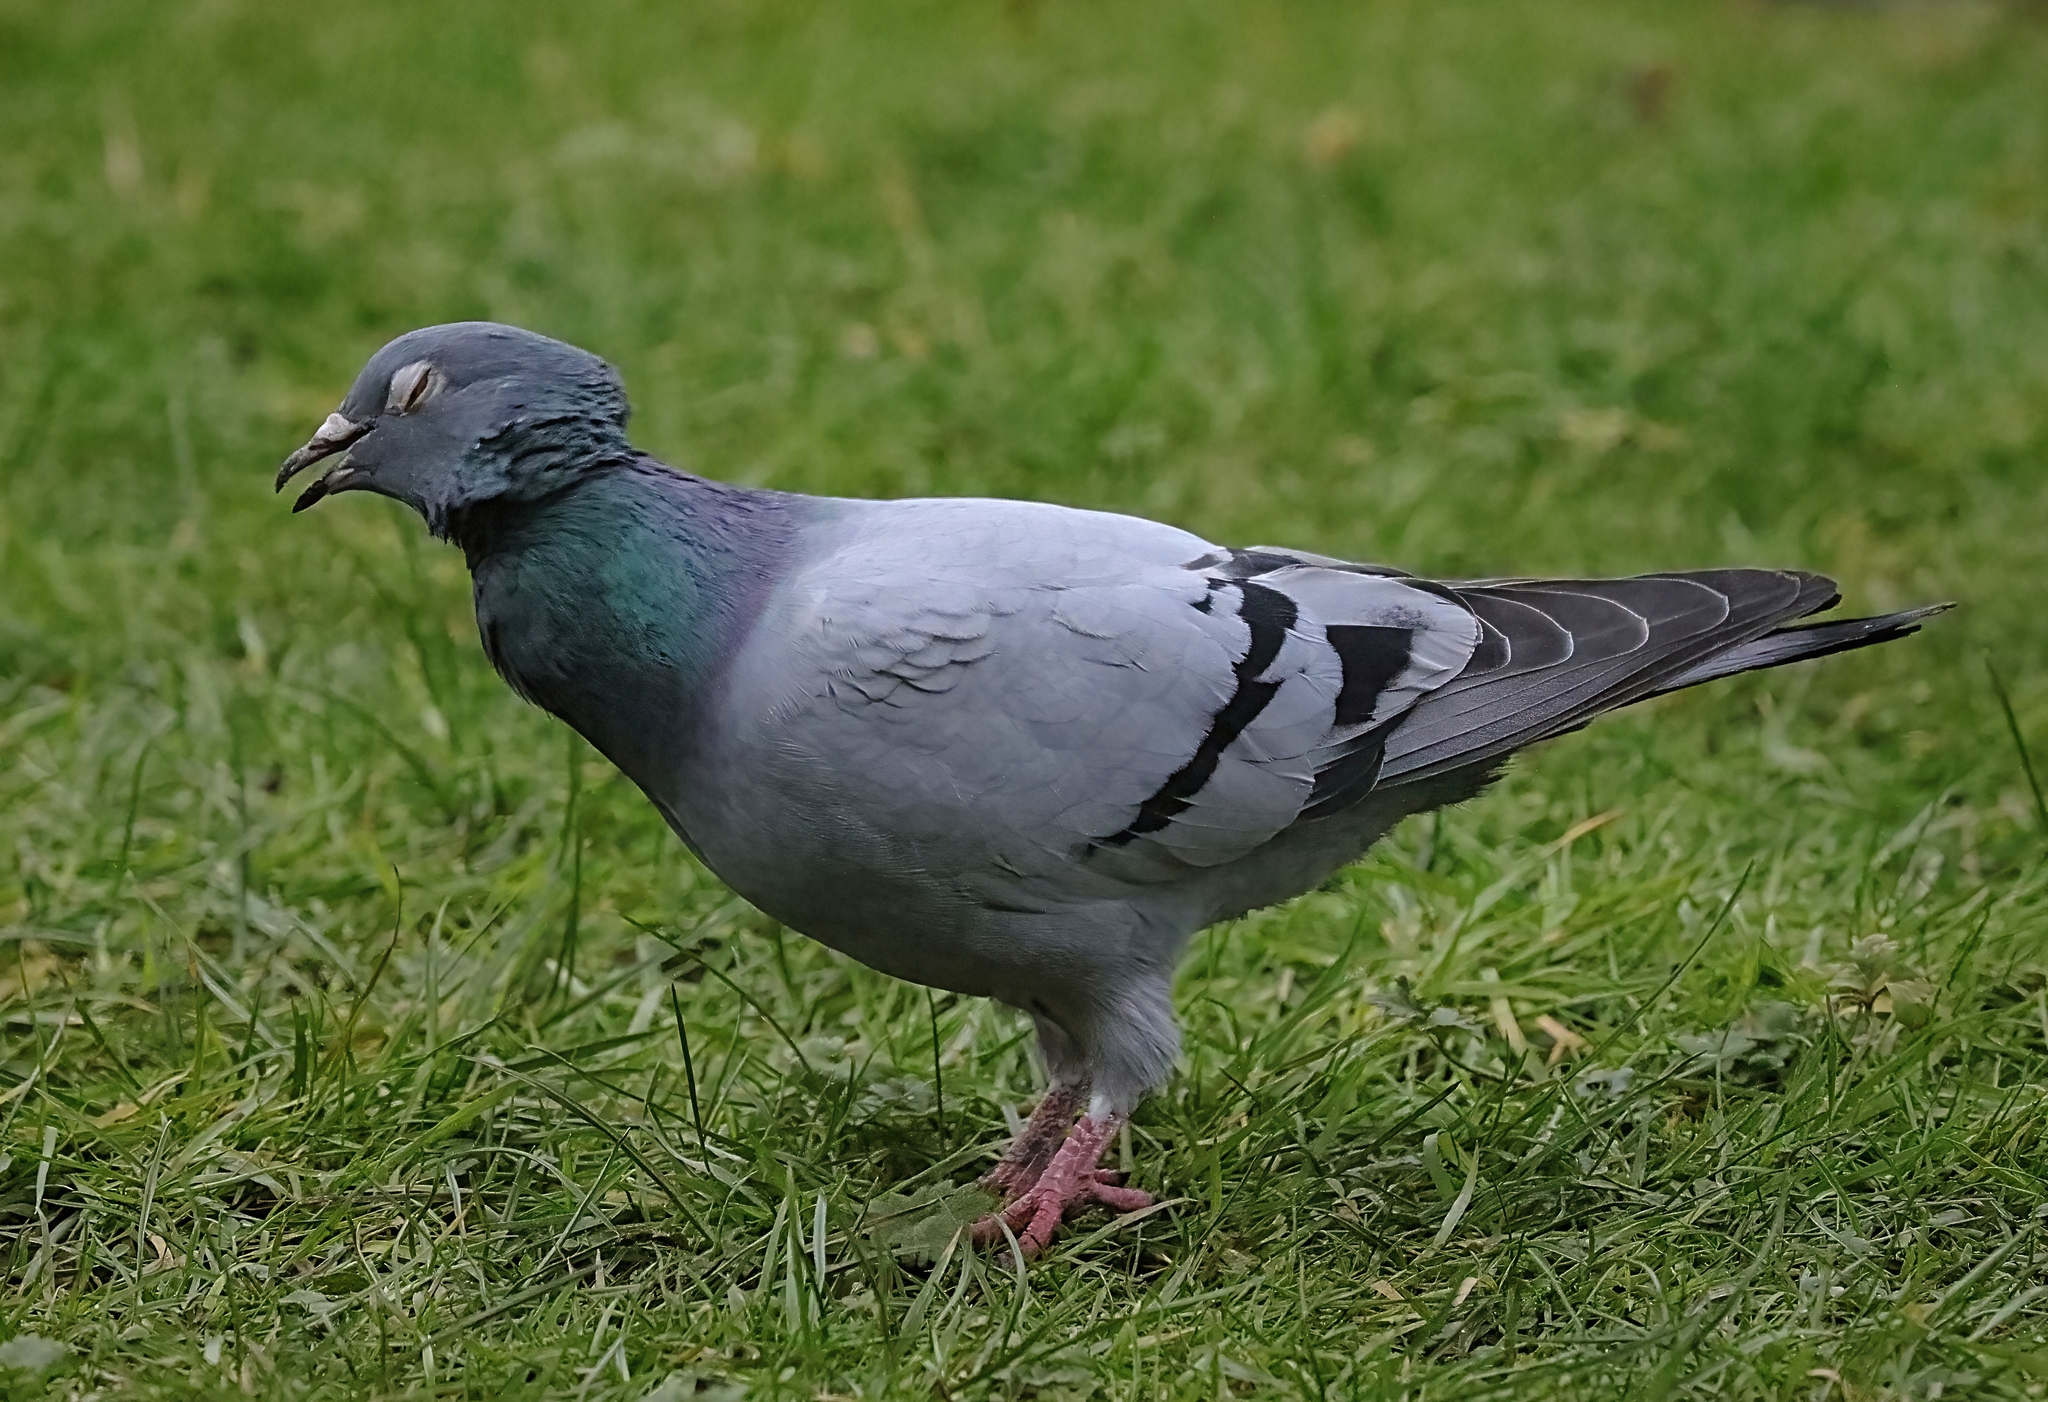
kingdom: Animalia
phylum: Chordata
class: Aves
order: Columbiformes
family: Columbidae
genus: Columba
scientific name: Columba livia
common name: Rock pigeon
